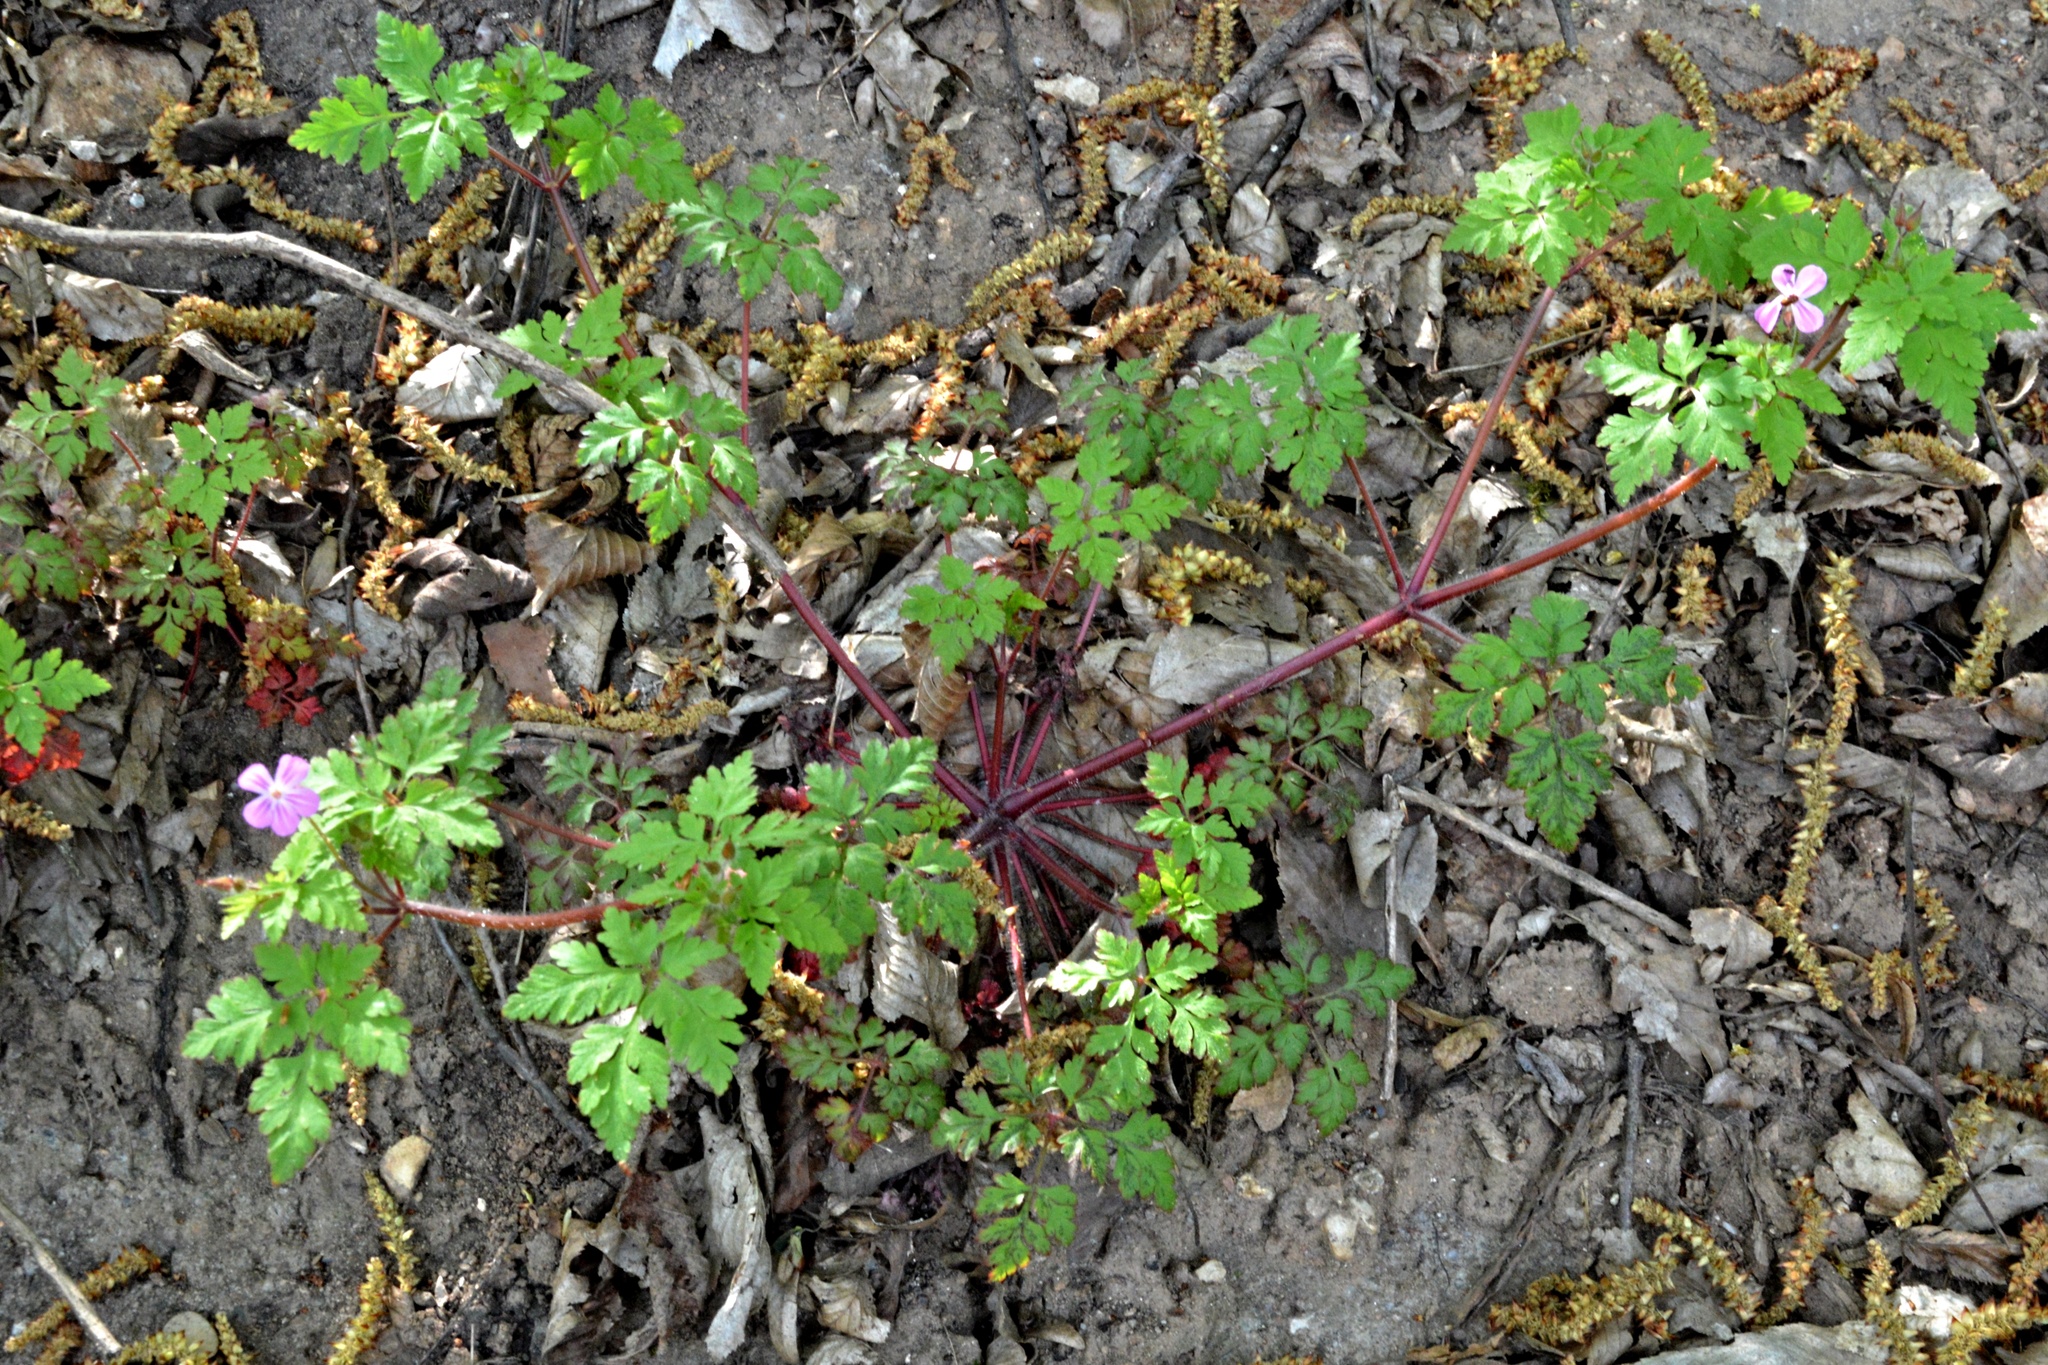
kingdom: Plantae
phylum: Tracheophyta
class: Magnoliopsida
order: Geraniales
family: Geraniaceae
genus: Geranium
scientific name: Geranium robertianum
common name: Herb-robert
